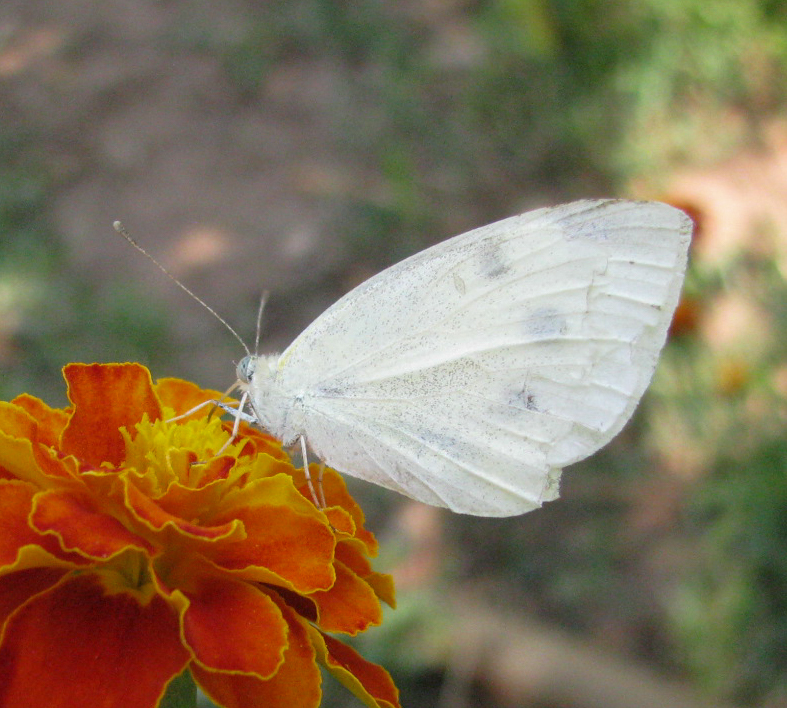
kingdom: Animalia
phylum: Arthropoda
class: Insecta
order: Lepidoptera
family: Pieridae
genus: Pieris
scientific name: Pieris rapae
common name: Small white
